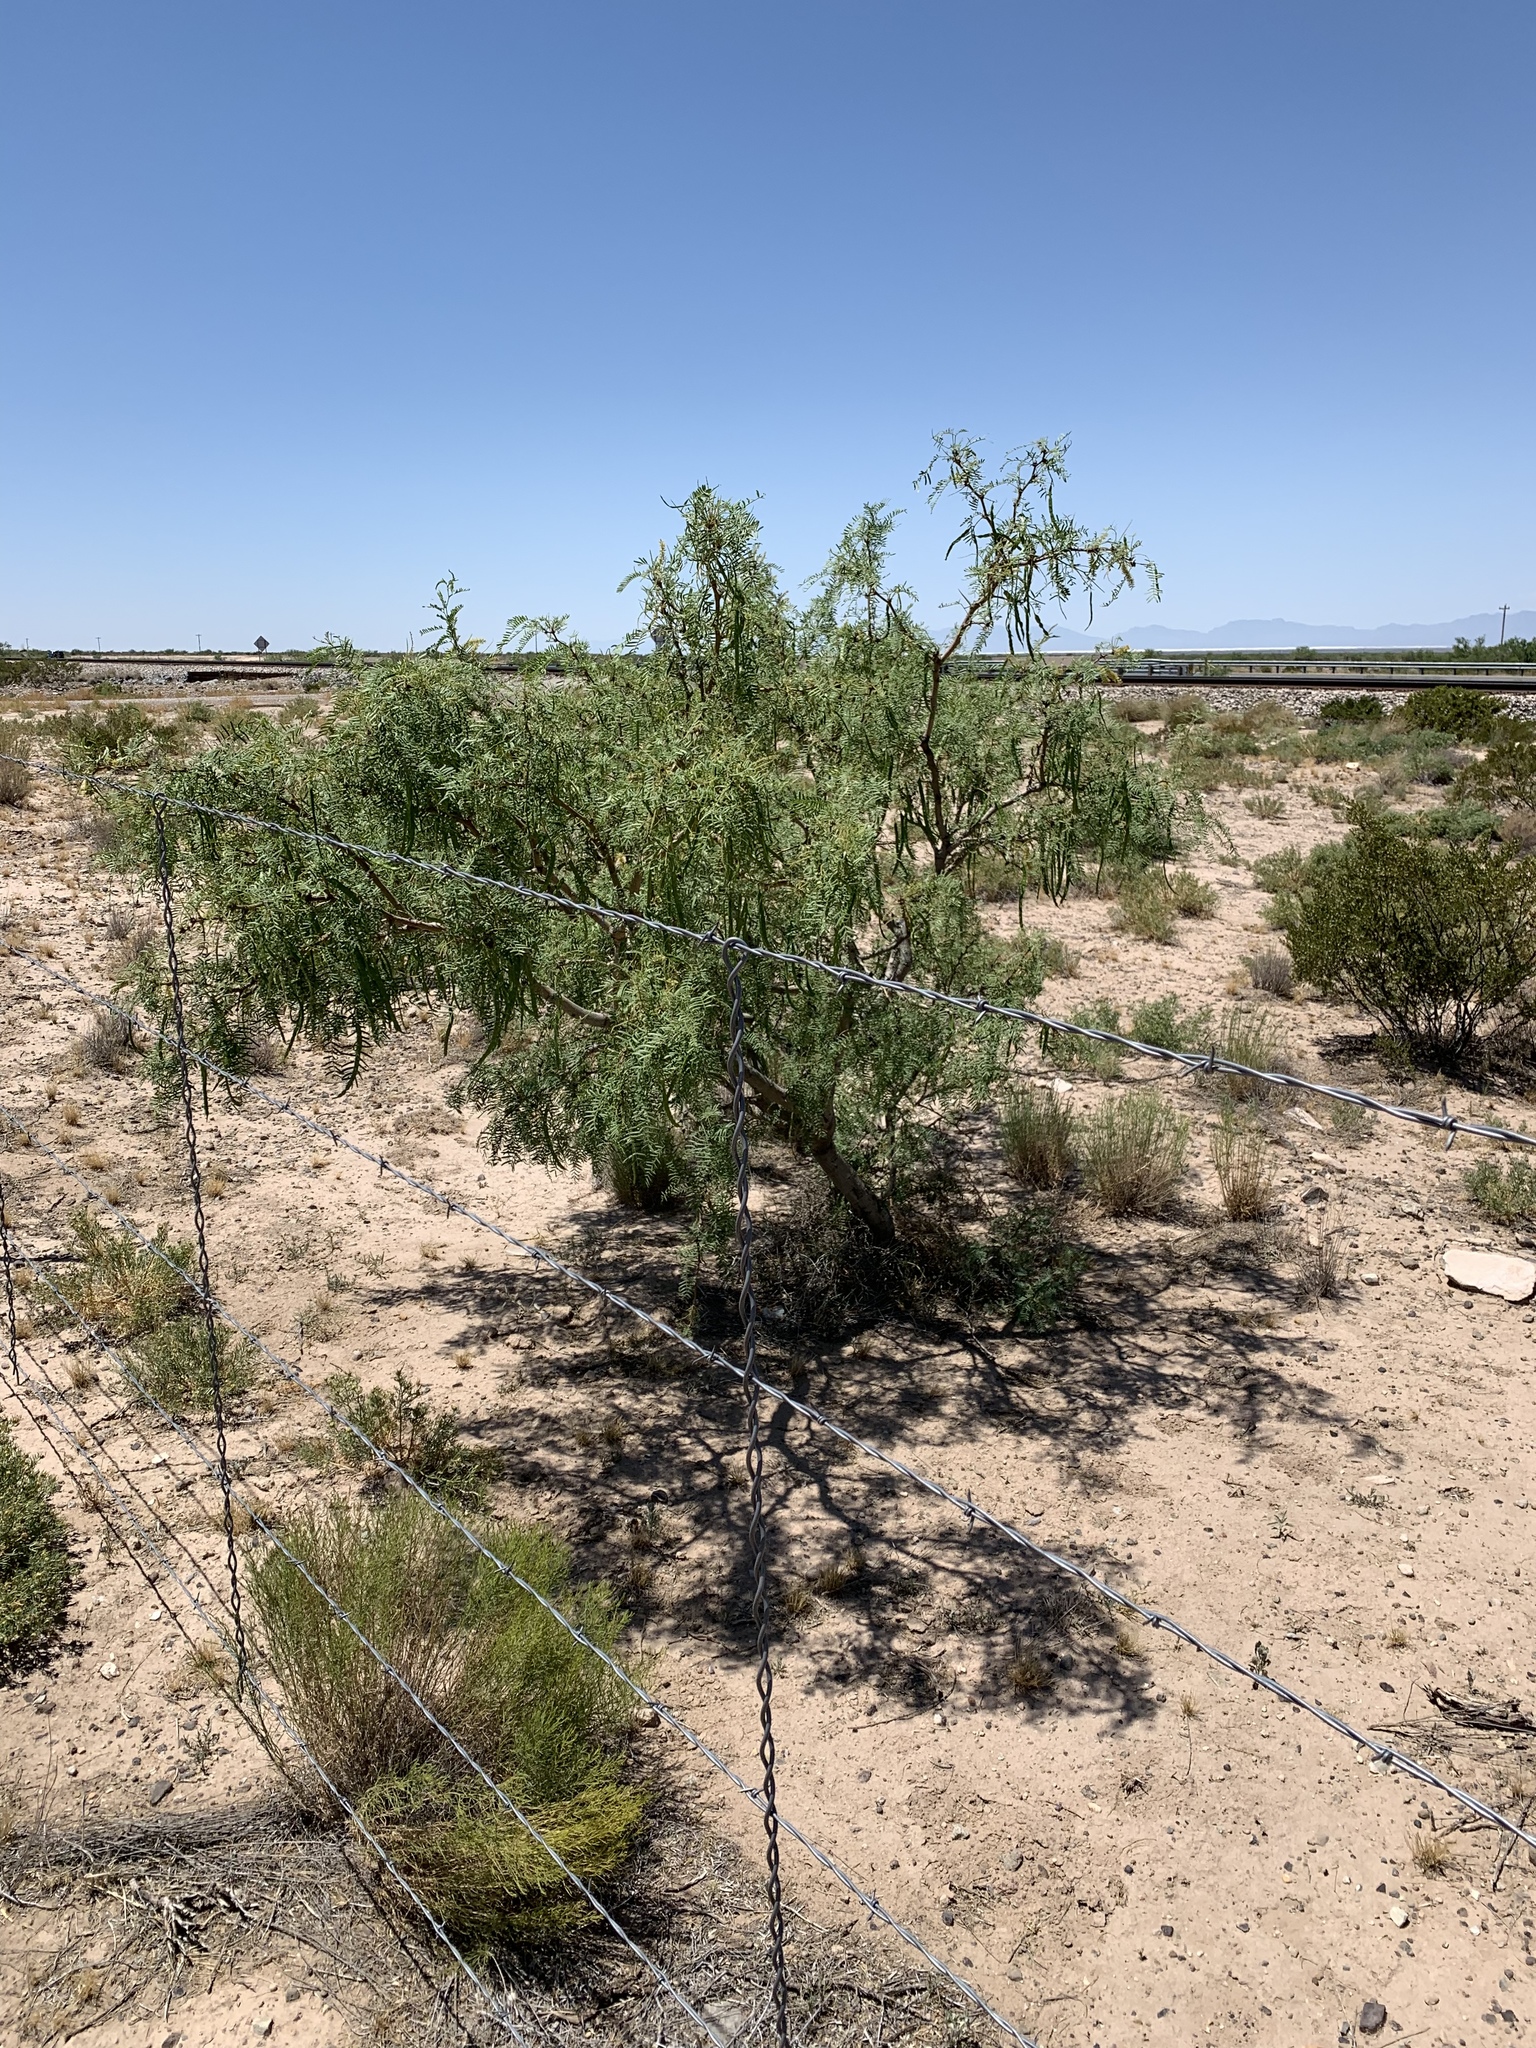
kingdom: Plantae
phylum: Tracheophyta
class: Magnoliopsida
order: Fabales
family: Fabaceae
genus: Prosopis
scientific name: Prosopis glandulosa
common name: Honey mesquite
